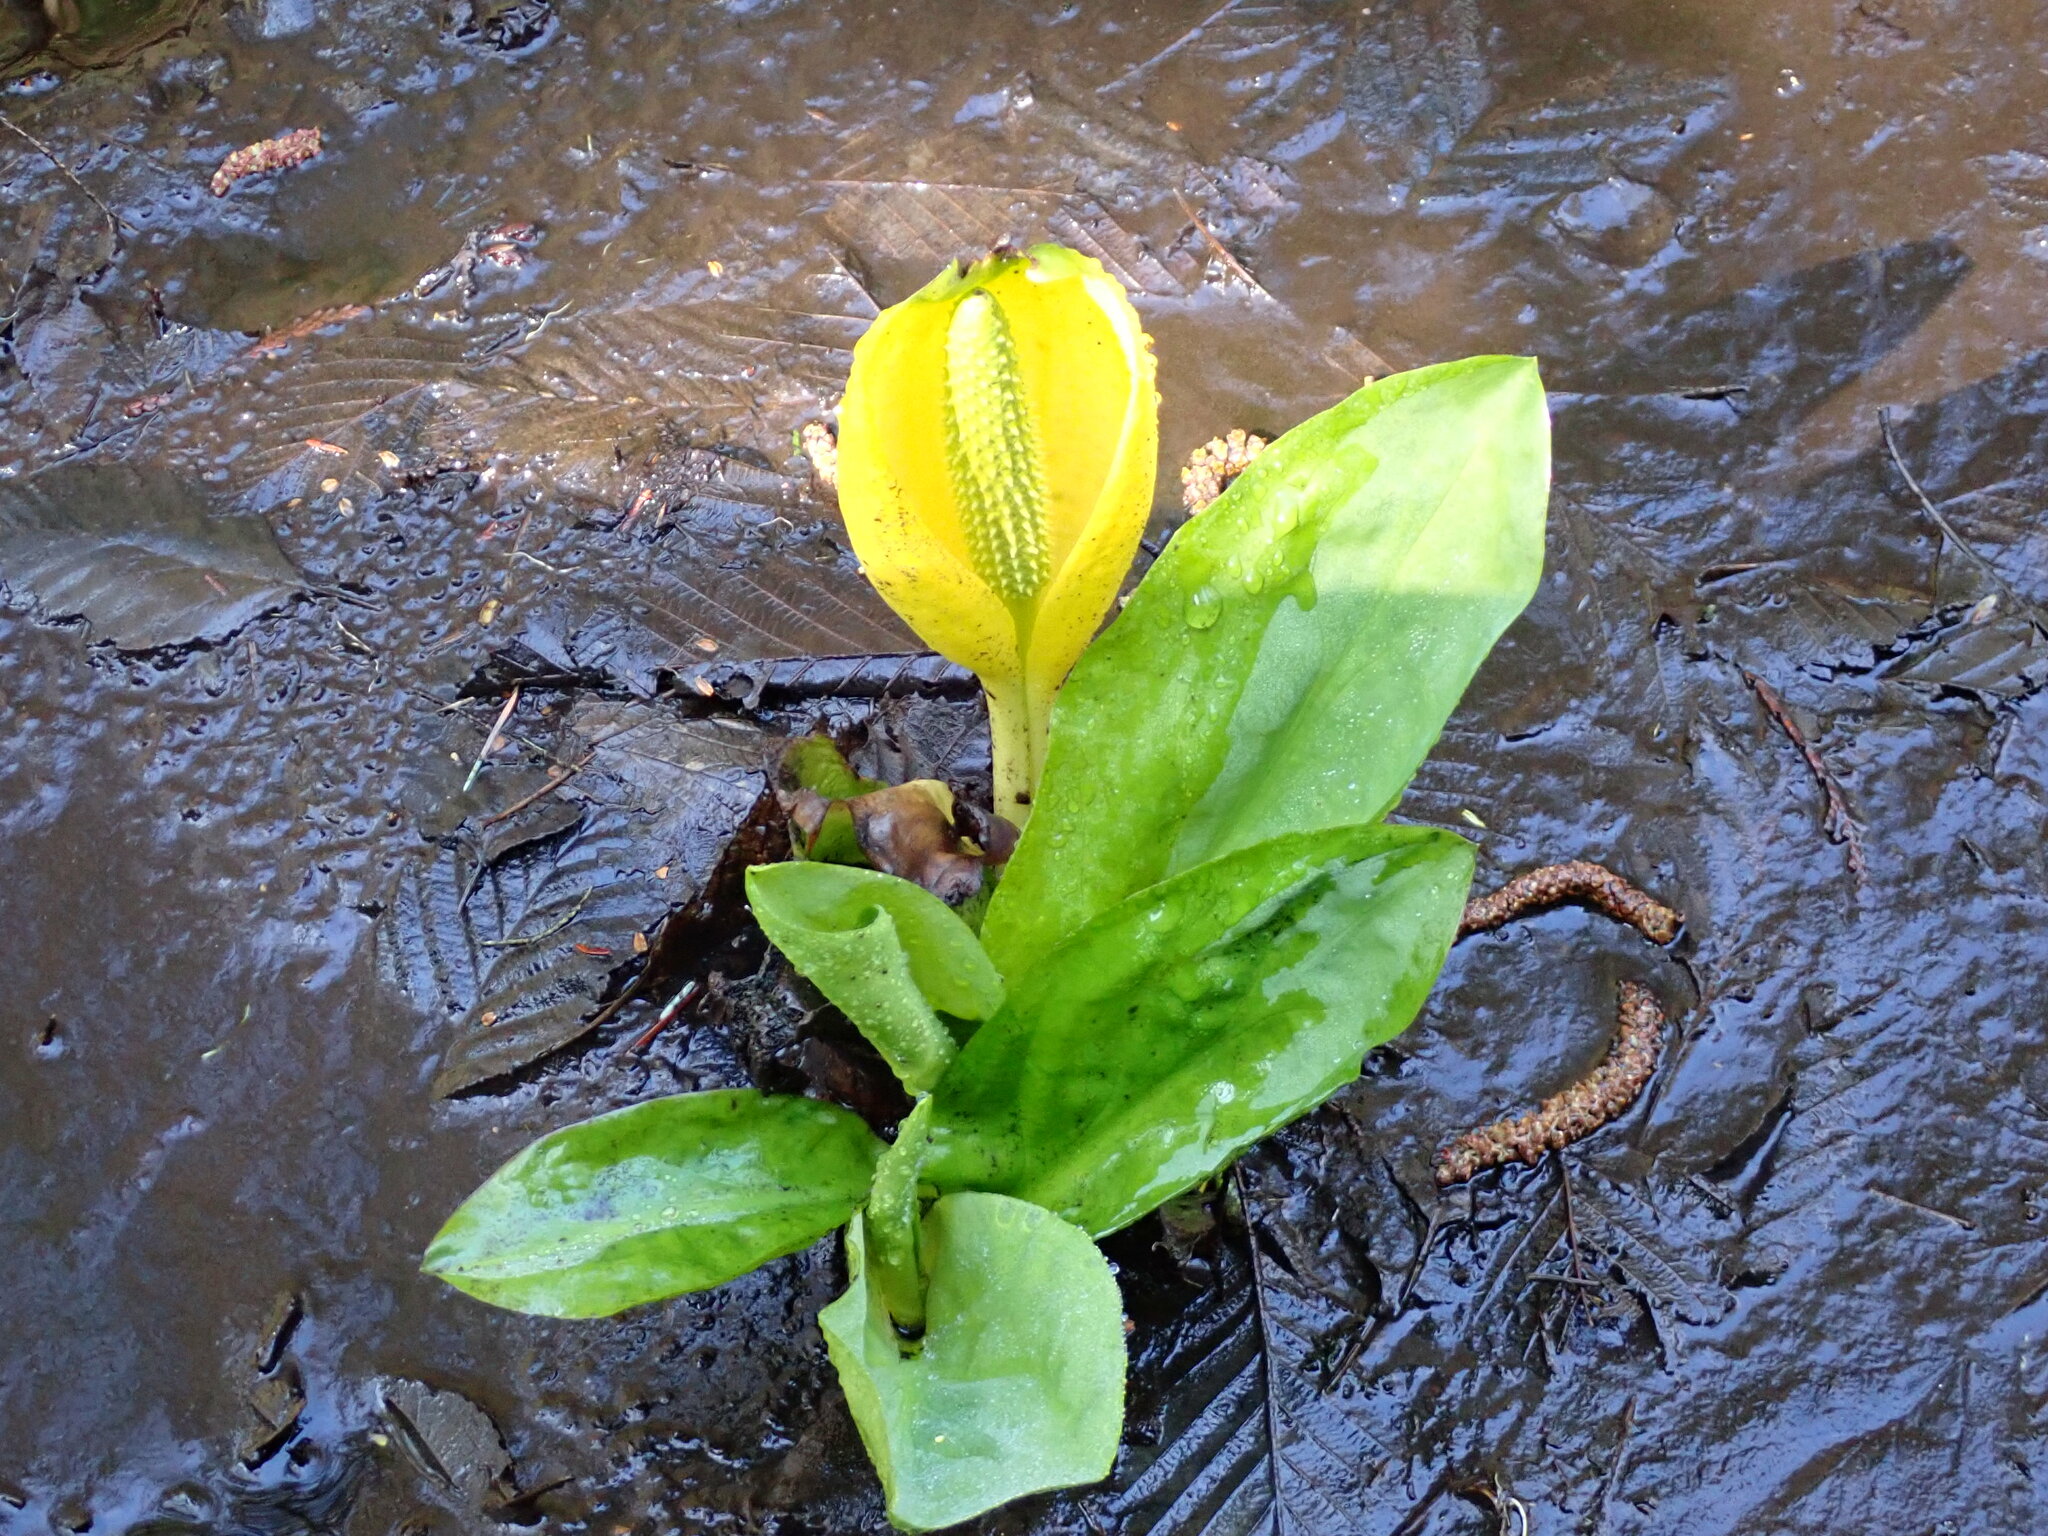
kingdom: Plantae
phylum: Tracheophyta
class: Liliopsida
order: Alismatales
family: Araceae
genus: Lysichiton
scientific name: Lysichiton americanus
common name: American skunk cabbage
